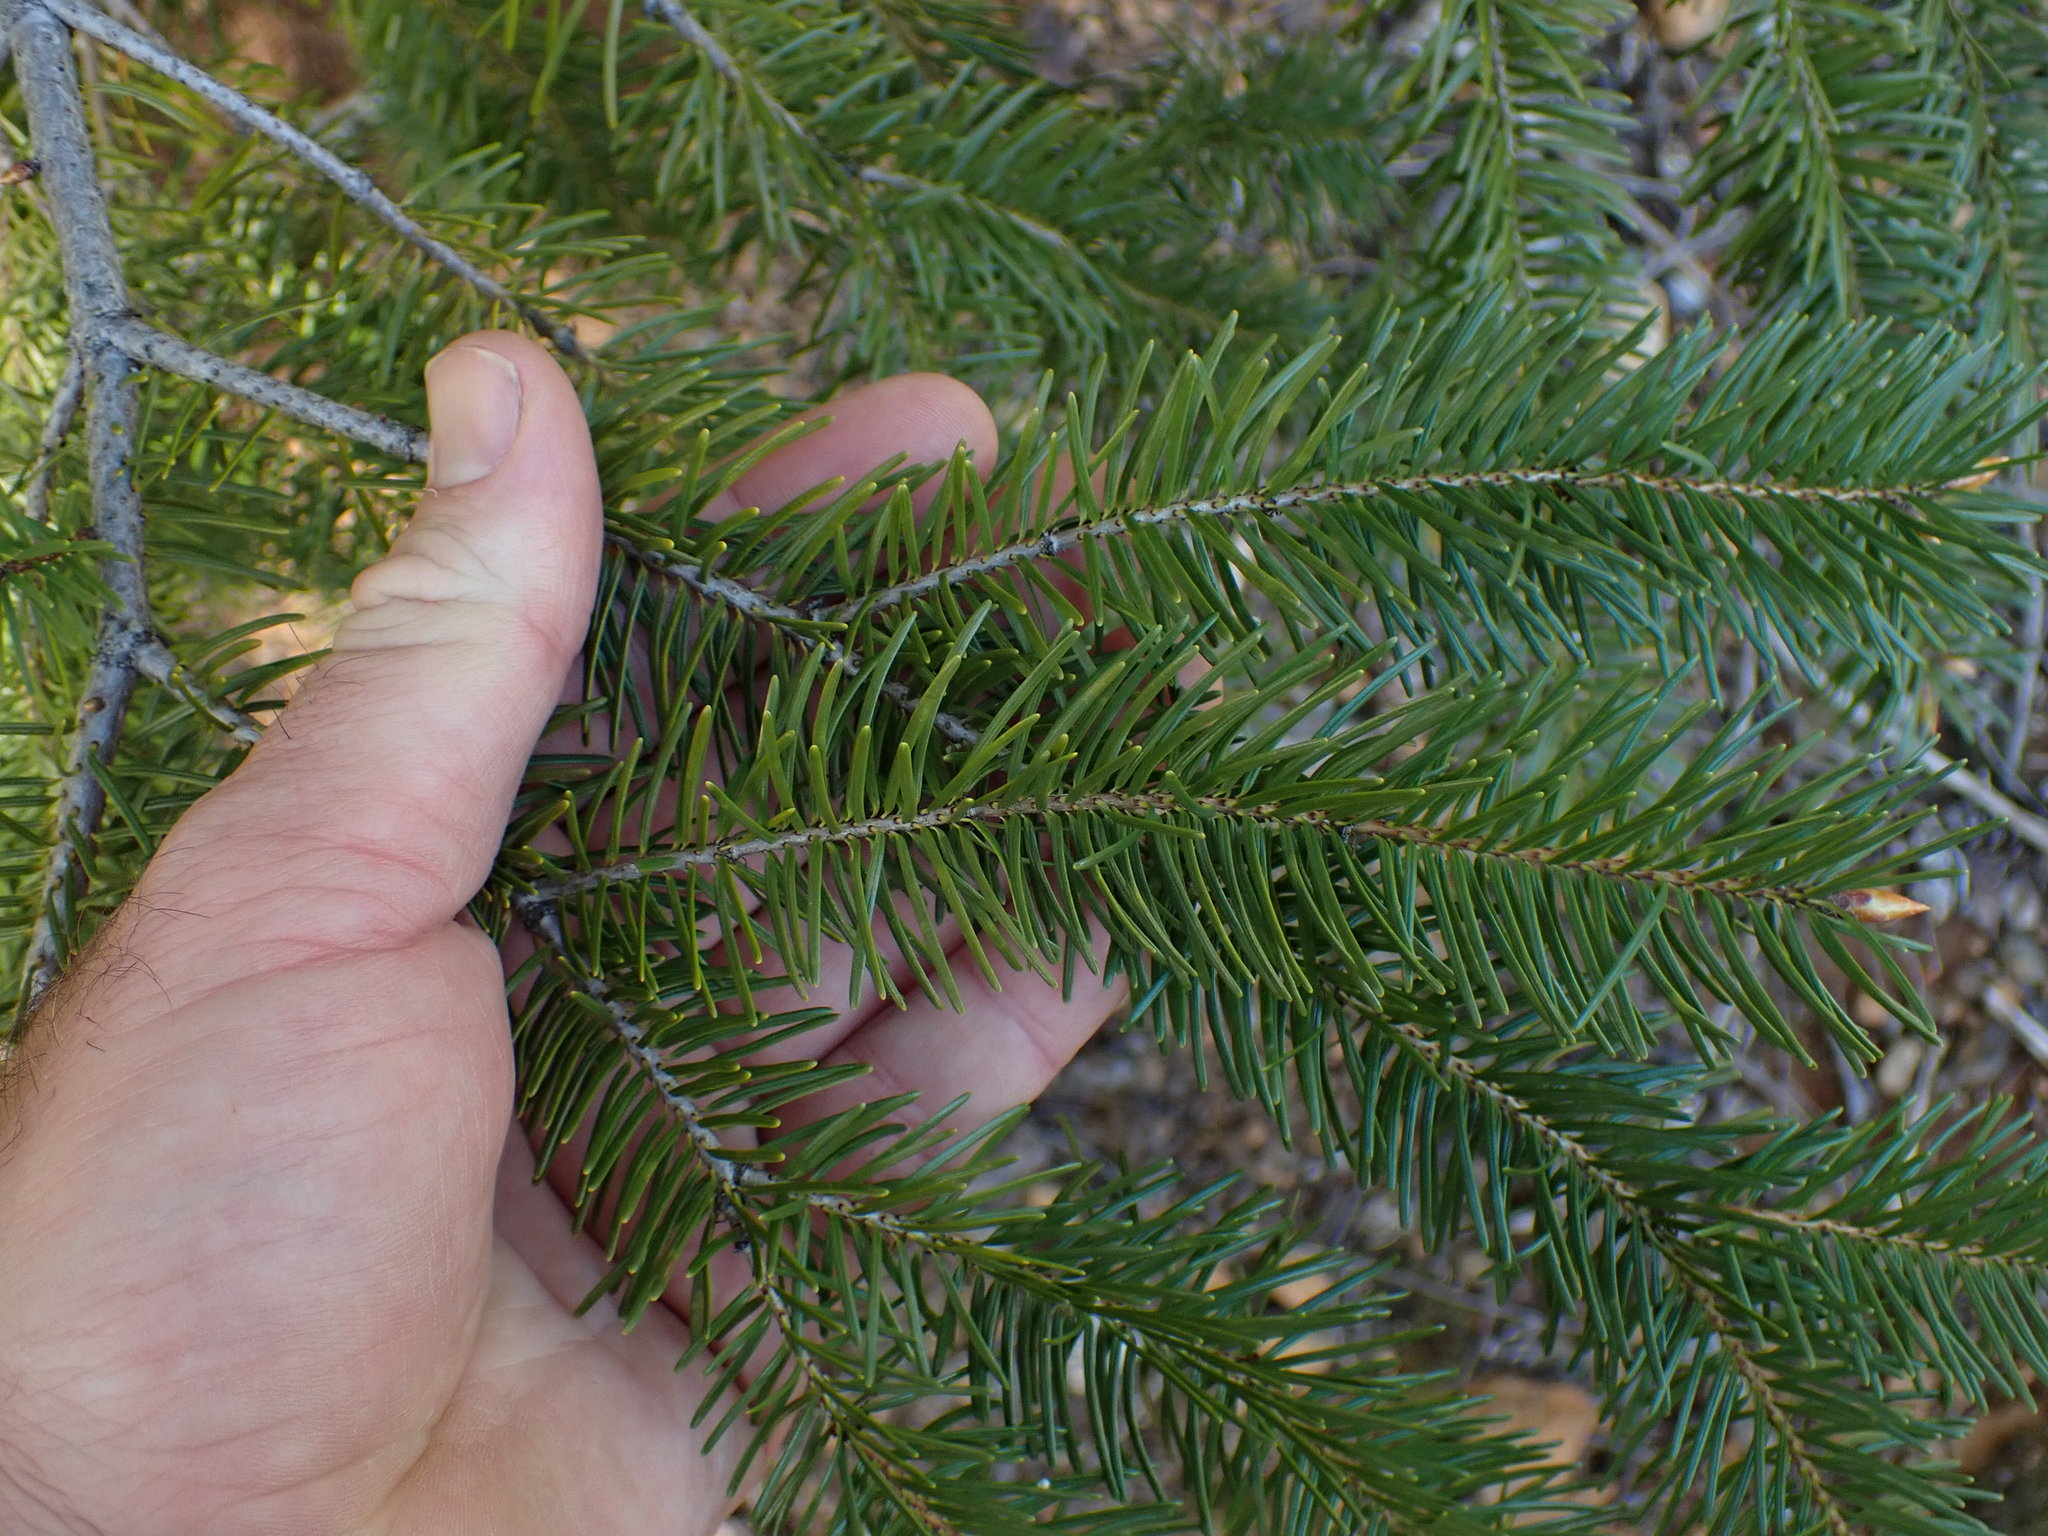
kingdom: Plantae
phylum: Tracheophyta
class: Pinopsida
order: Pinales
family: Pinaceae
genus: Pseudotsuga
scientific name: Pseudotsuga menziesii
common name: Douglas fir
